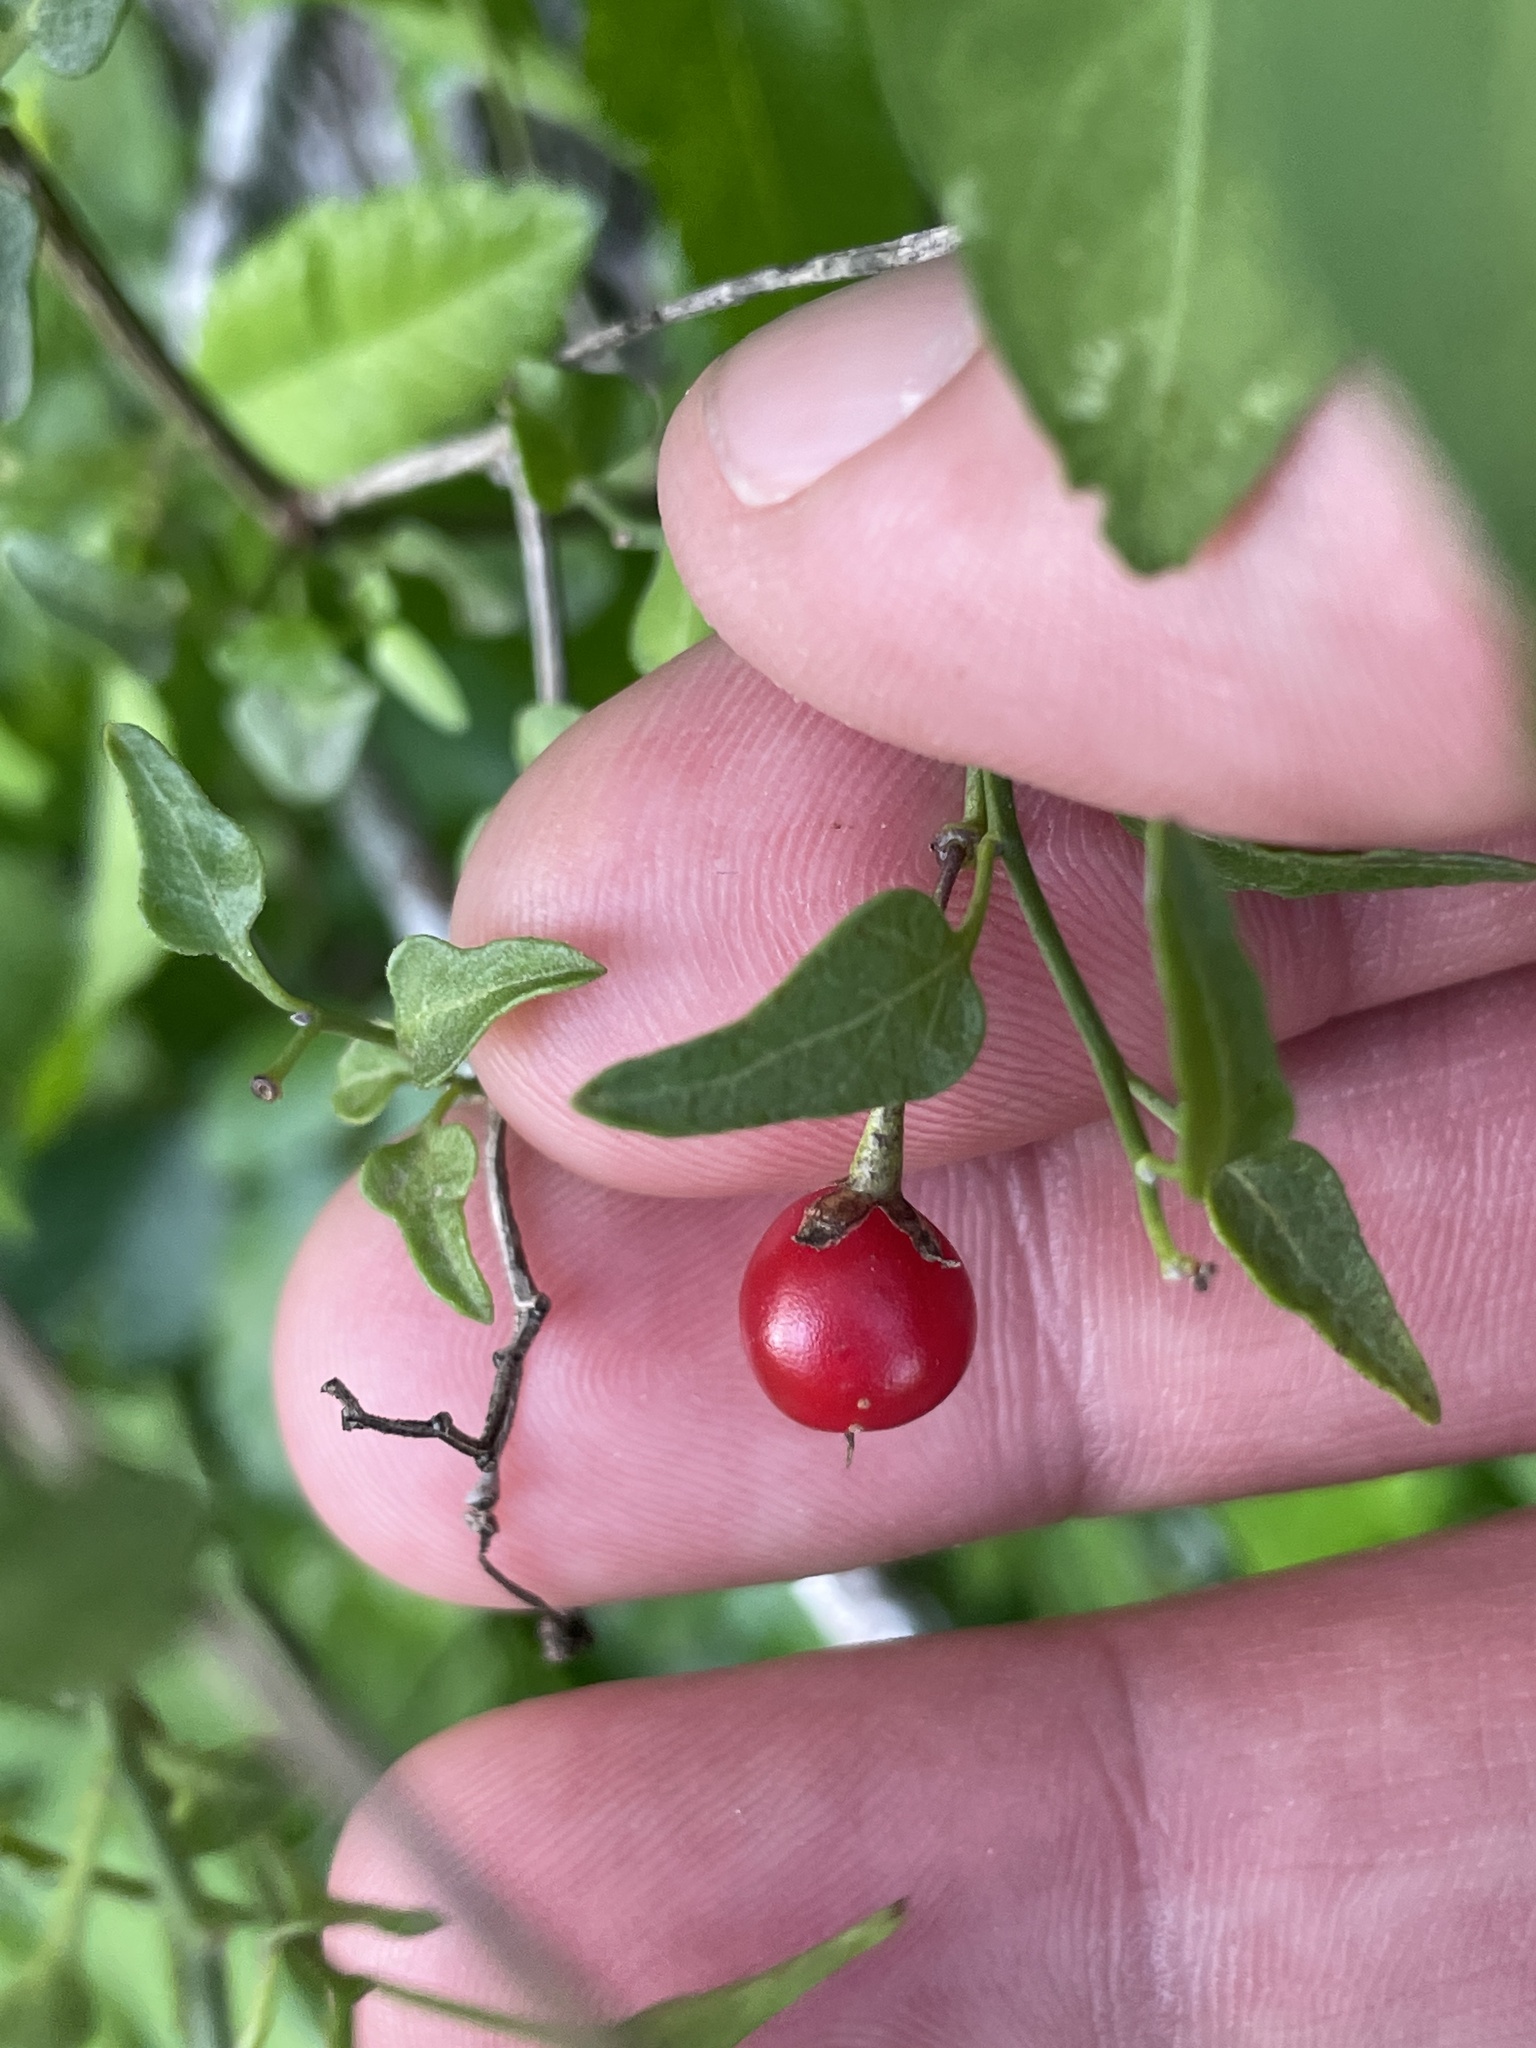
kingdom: Plantae
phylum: Tracheophyta
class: Magnoliopsida
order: Solanales
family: Solanaceae
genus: Solanum
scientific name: Solanum triquetrum
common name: Texas nightshade
